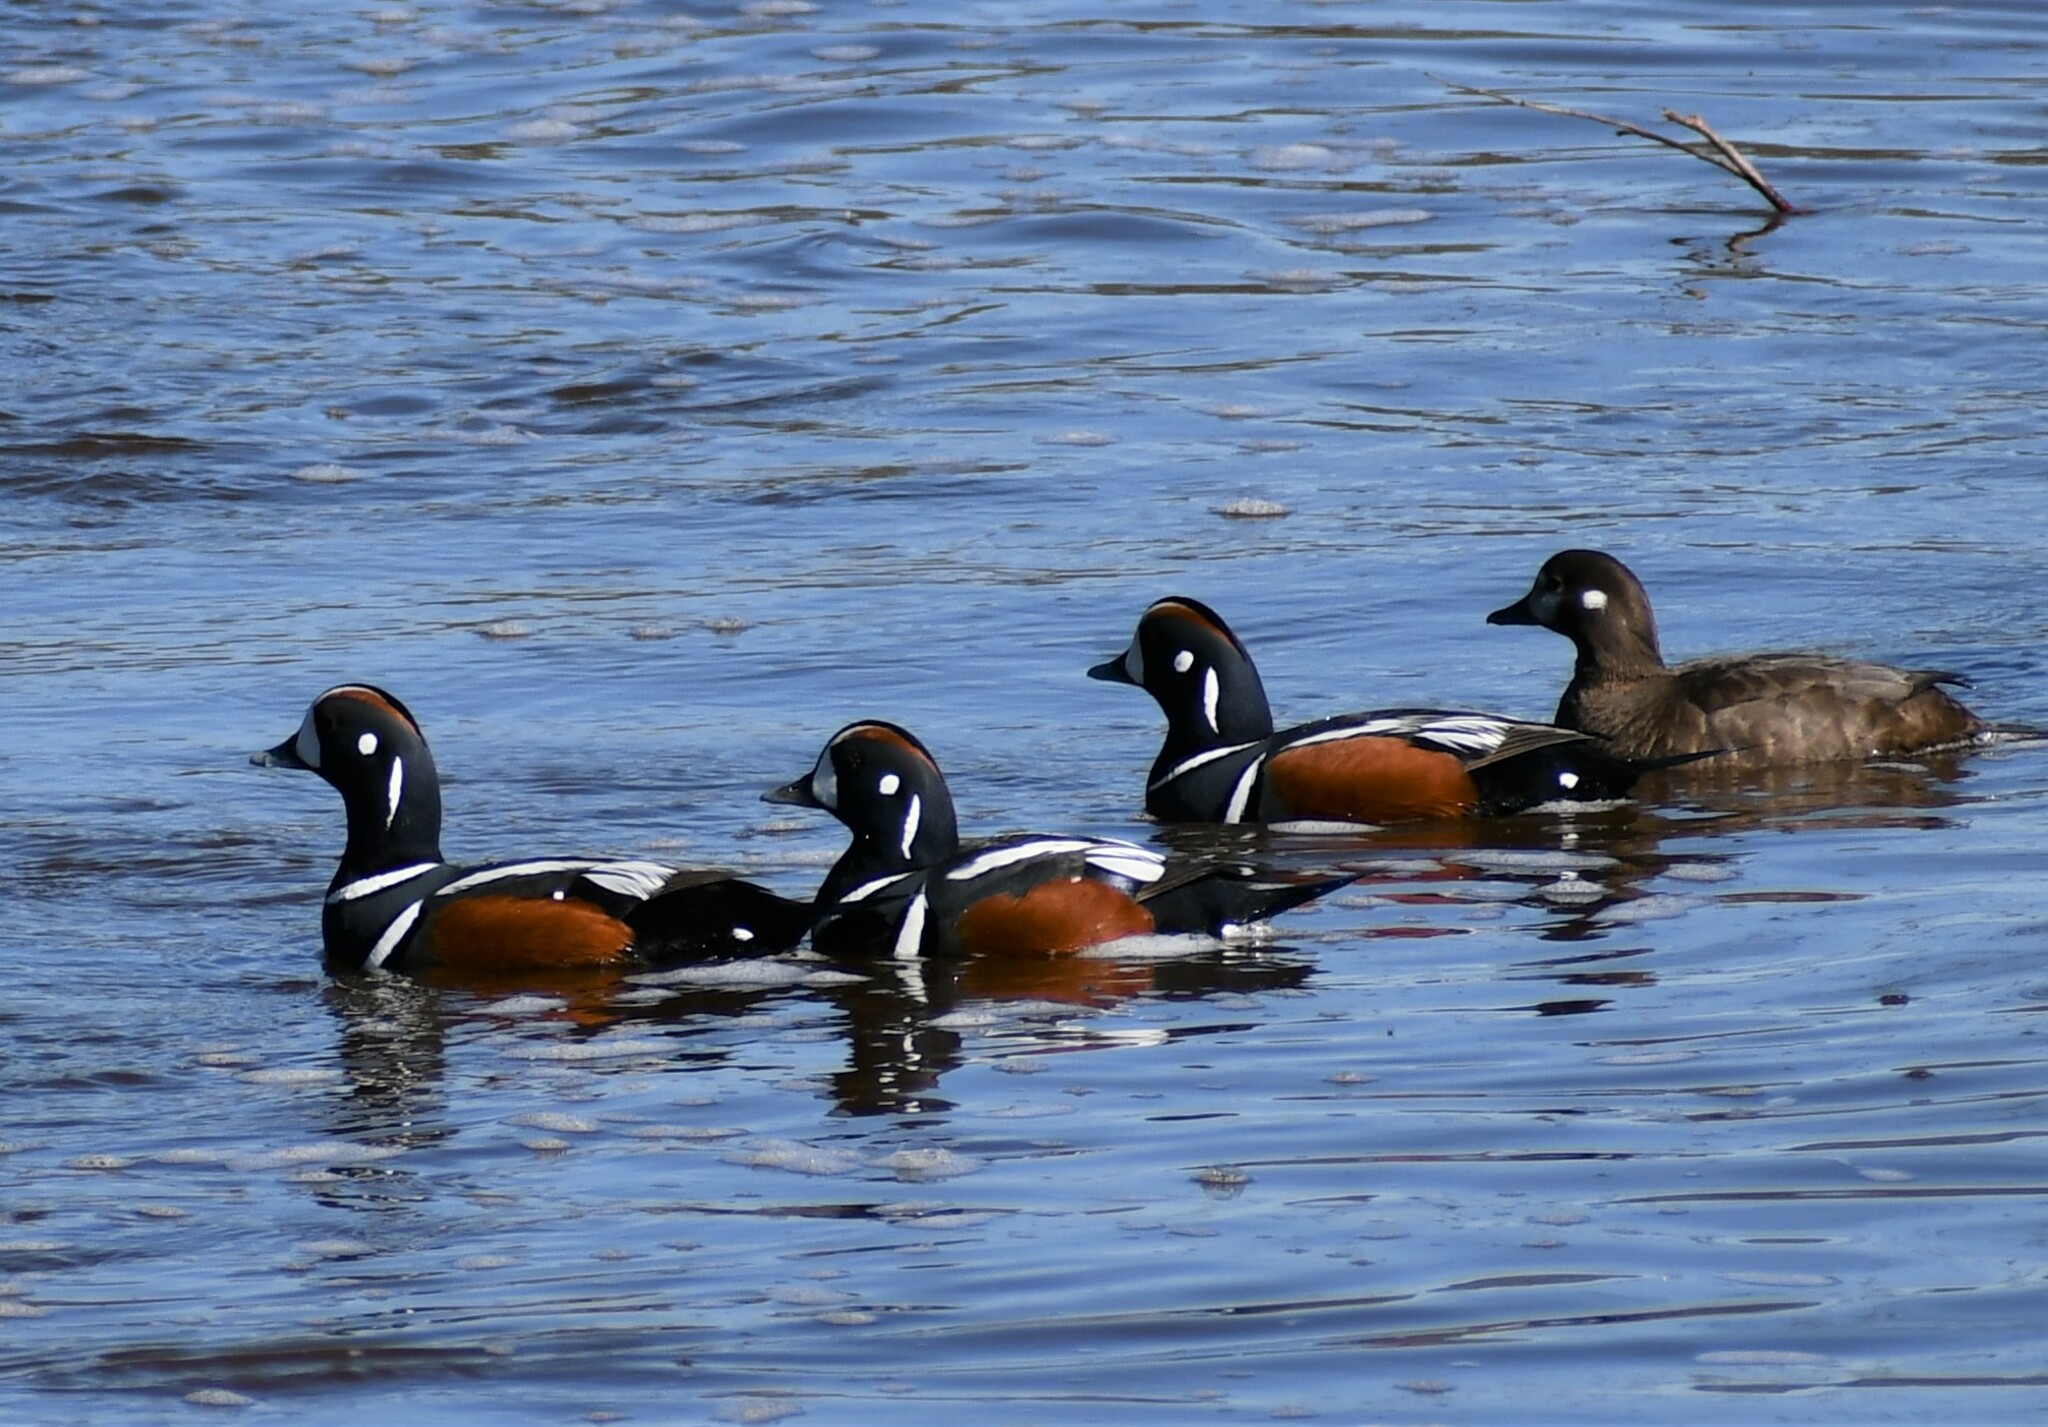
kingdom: Animalia
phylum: Chordata
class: Aves
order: Anseriformes
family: Anatidae
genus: Histrionicus
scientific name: Histrionicus histrionicus
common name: Harlequin duck
